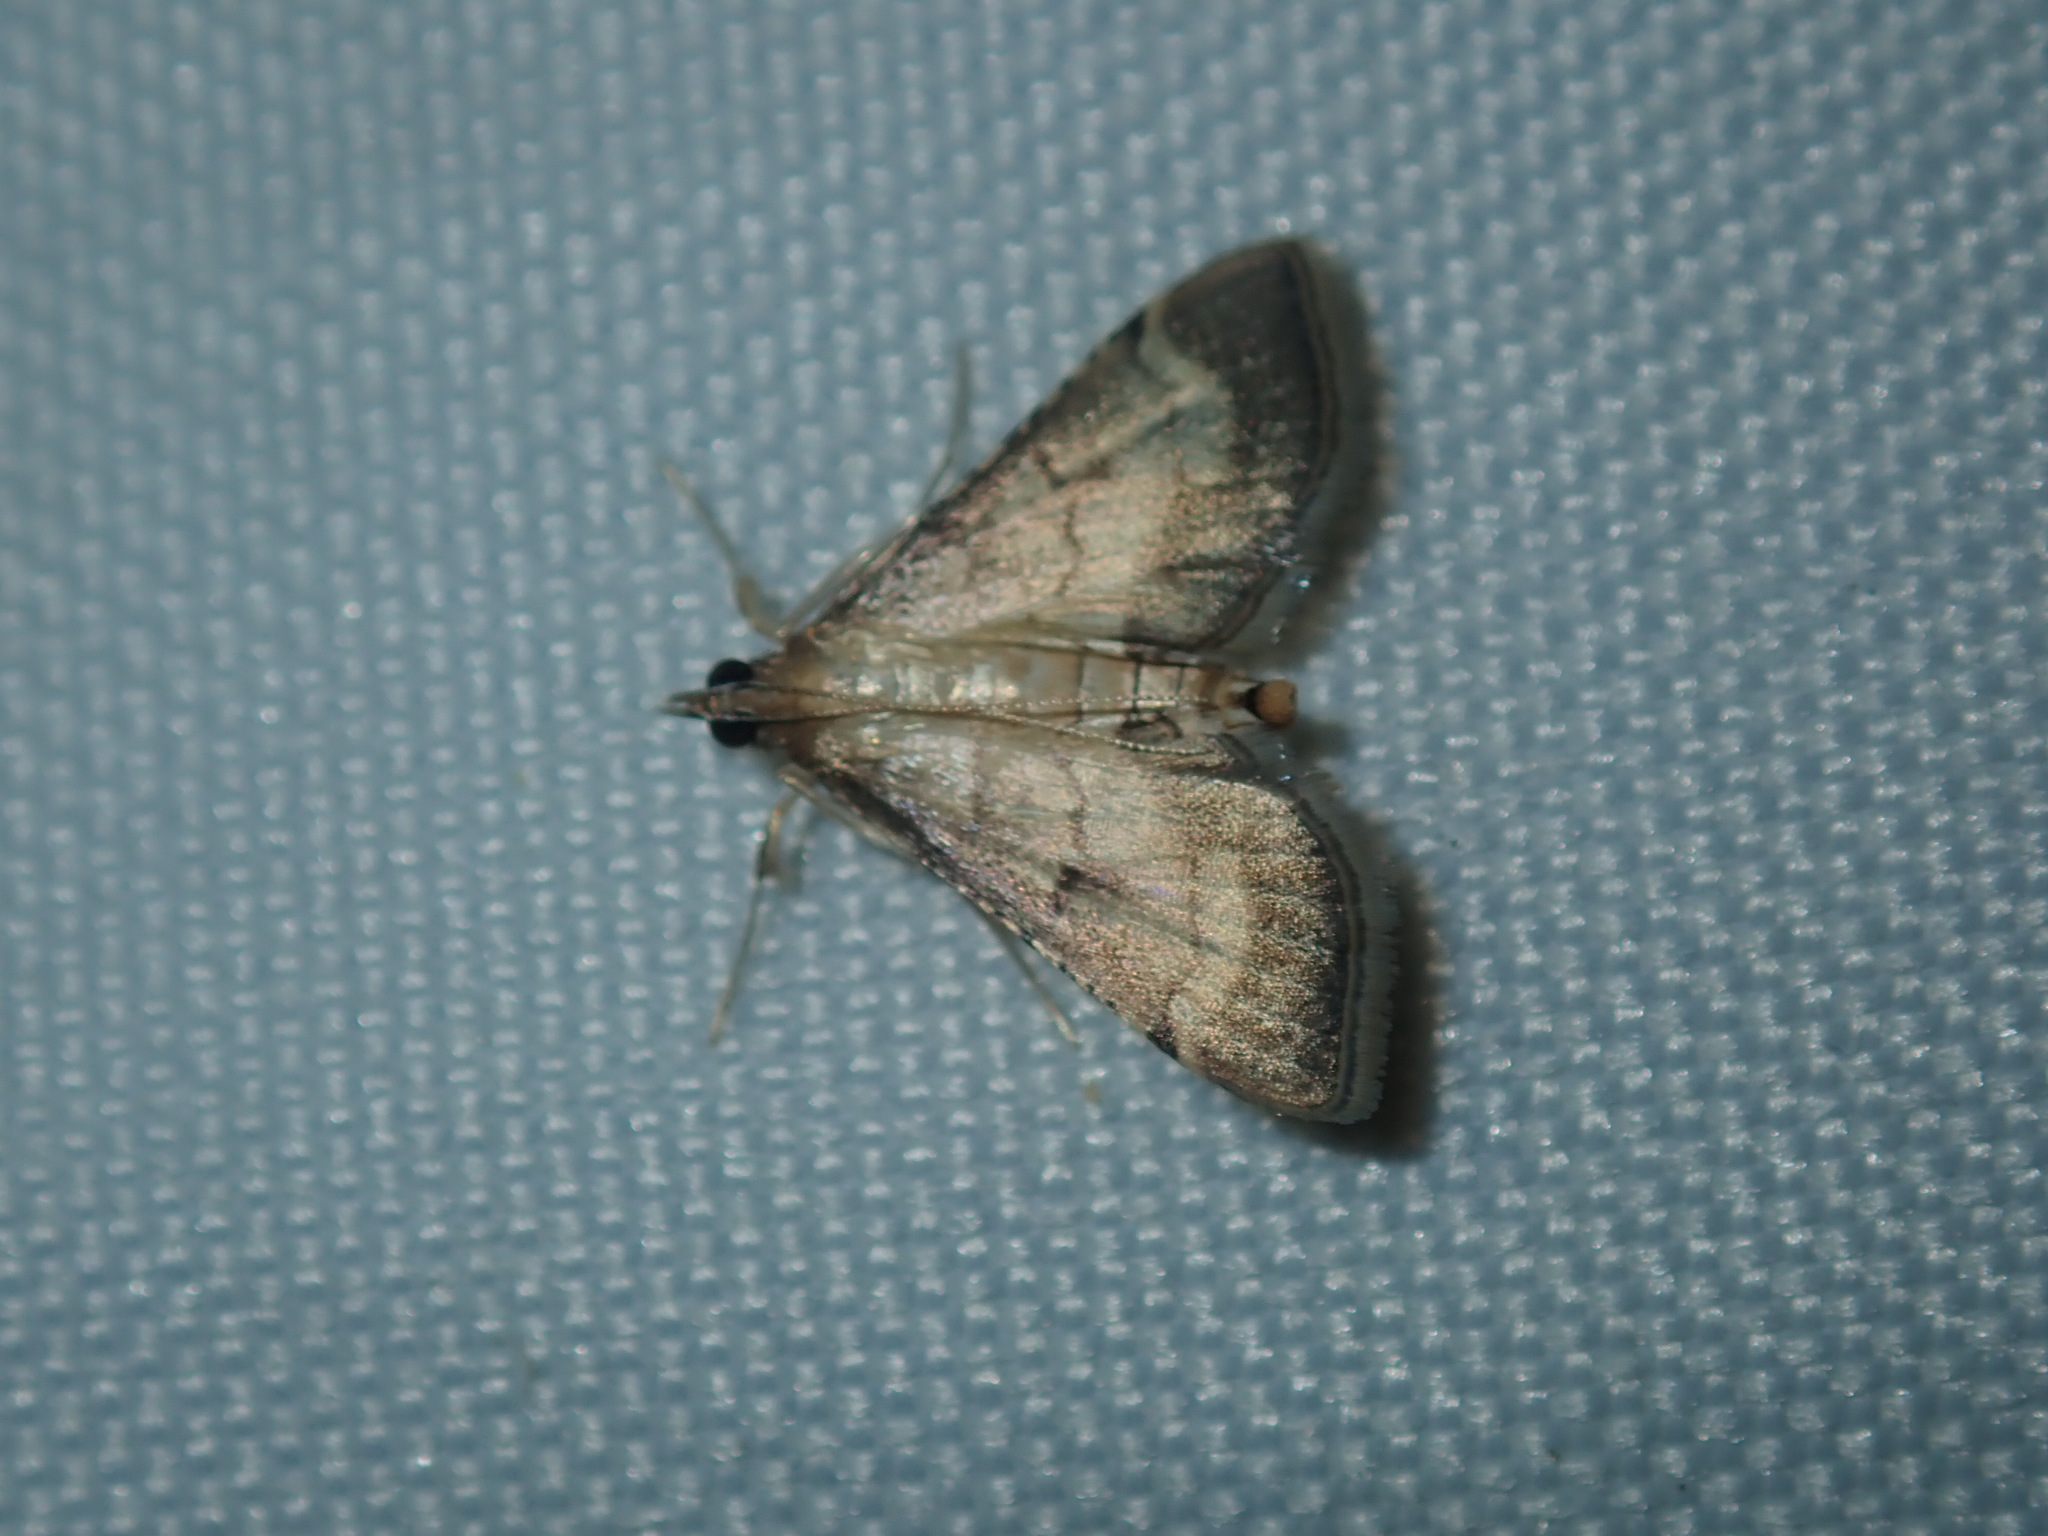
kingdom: Animalia
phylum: Arthropoda
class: Insecta
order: Lepidoptera
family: Crambidae
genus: Cnaphalocrocis
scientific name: Cnaphalocrocis poeyalis
